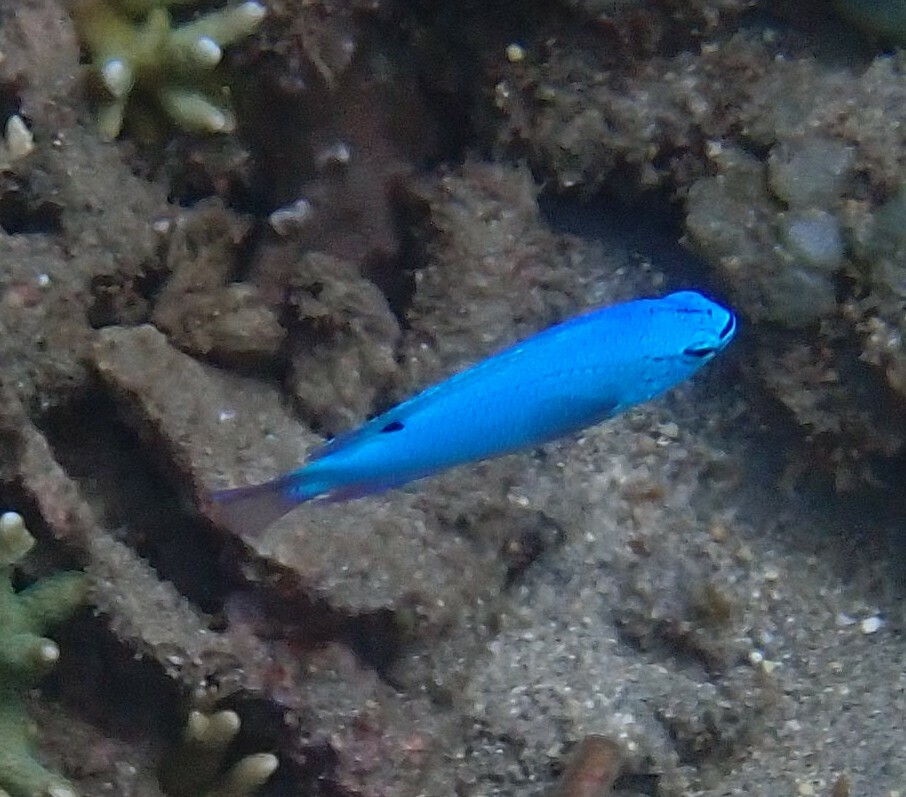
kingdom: Animalia
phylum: Chordata
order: Perciformes
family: Pomacentridae
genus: Chrysiptera
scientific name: Chrysiptera cyanea
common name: Blue devil
